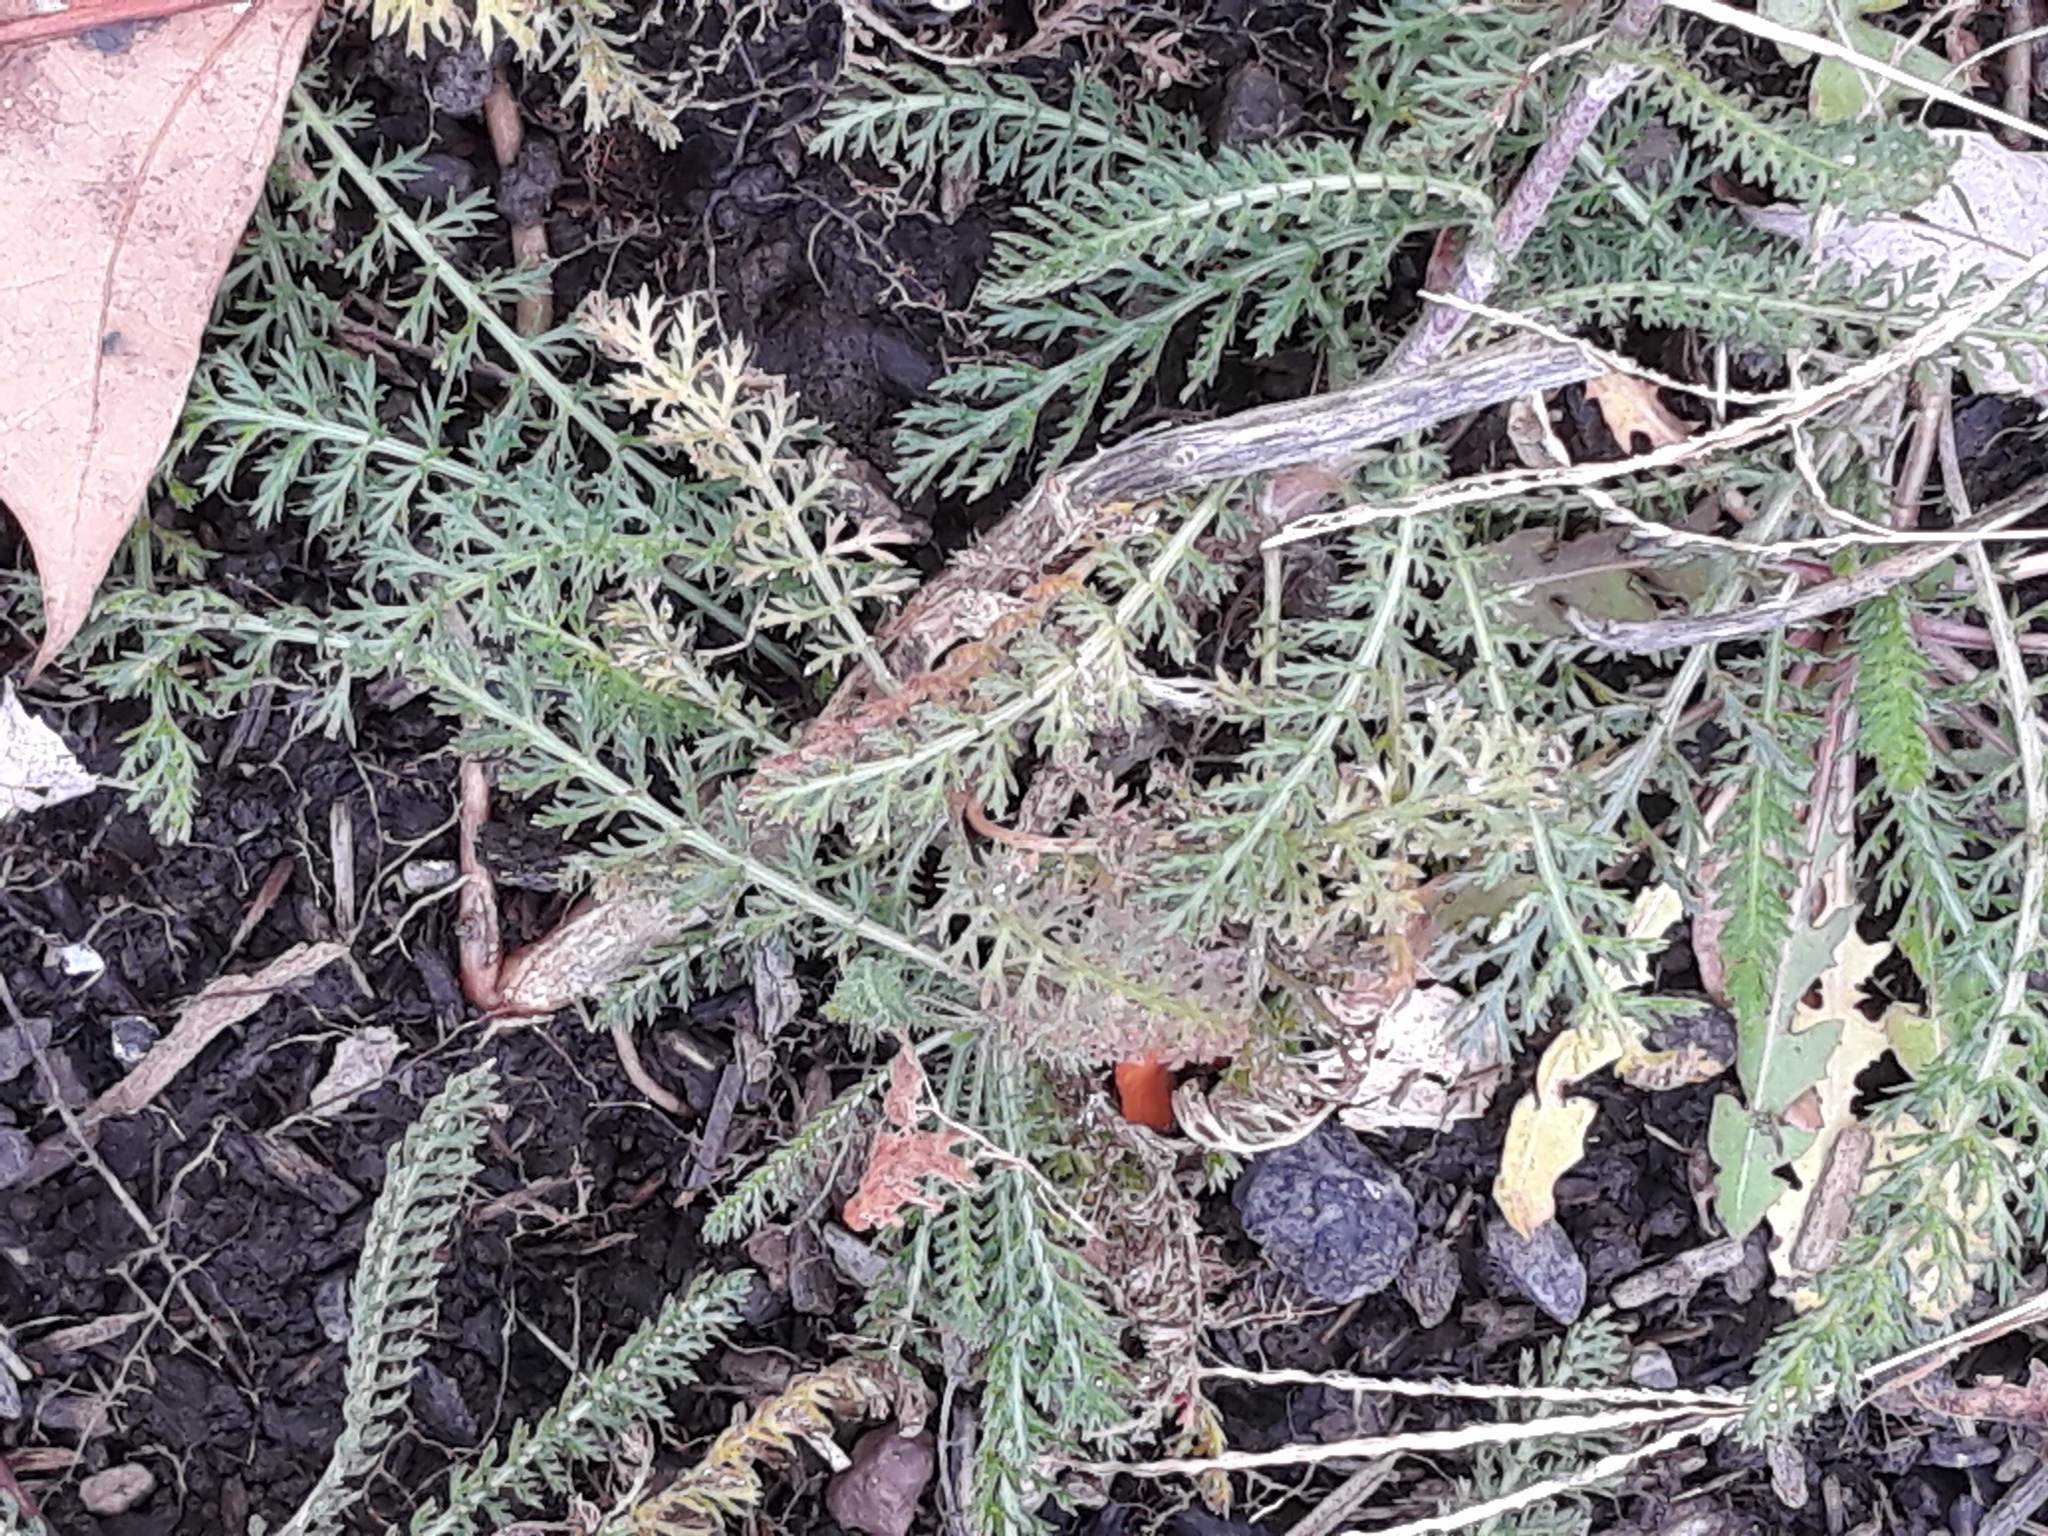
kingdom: Plantae
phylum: Tracheophyta
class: Magnoliopsida
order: Asterales
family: Asteraceae
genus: Achillea
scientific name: Achillea millefolium
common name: Yarrow
